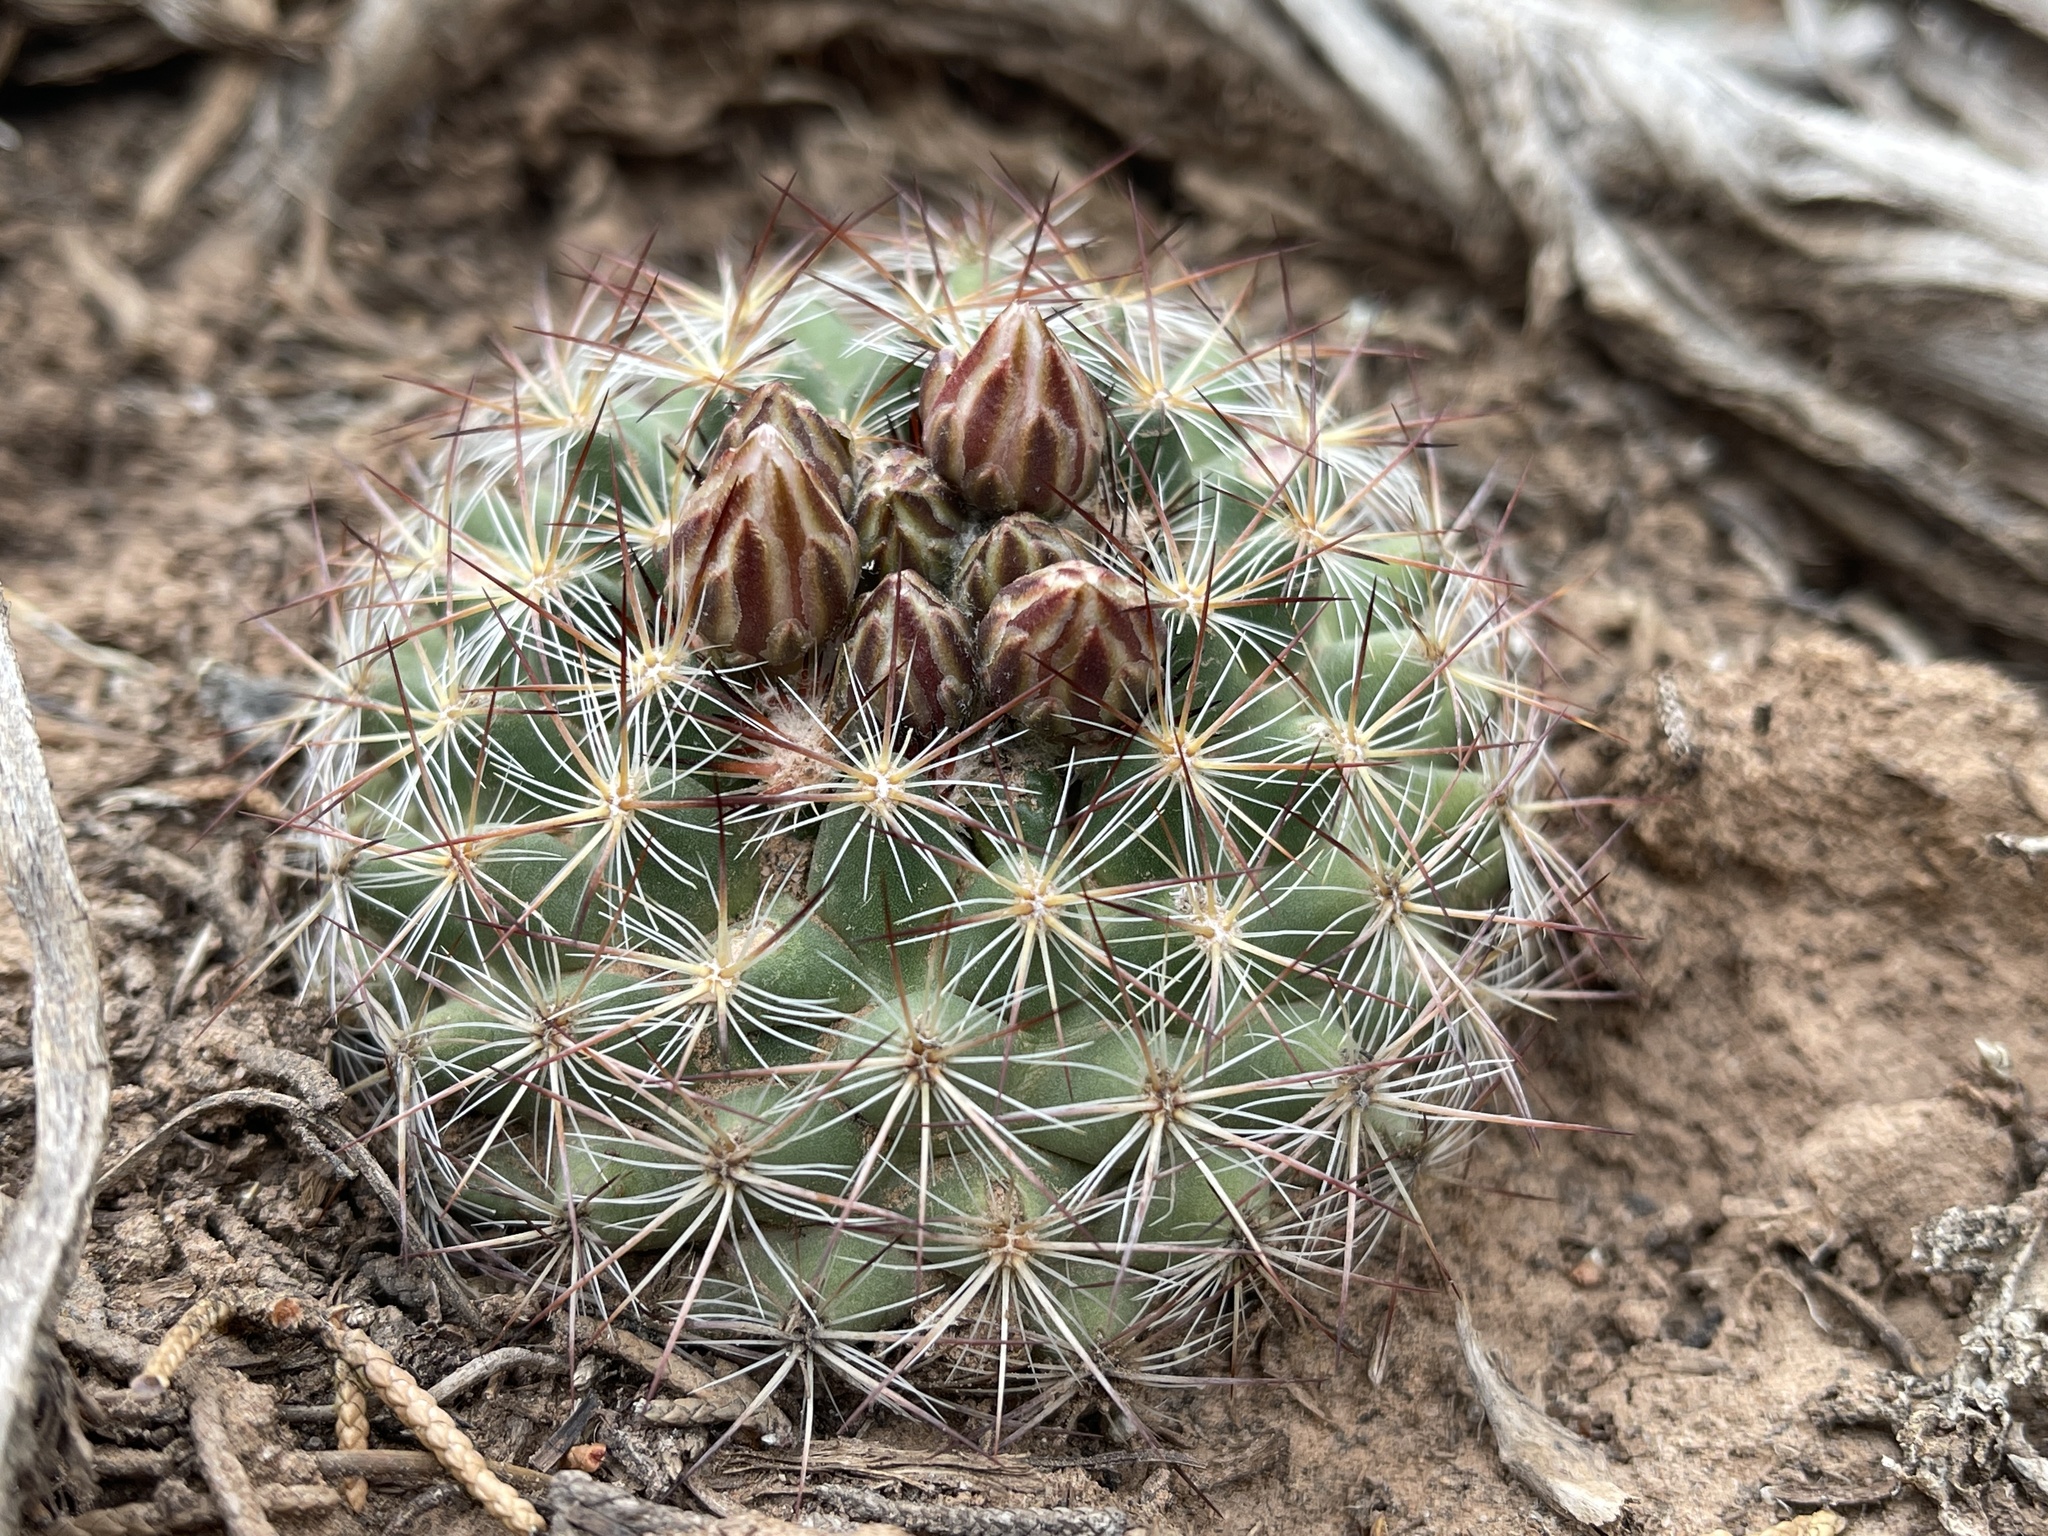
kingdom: Plantae
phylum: Tracheophyta
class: Magnoliopsida
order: Caryophyllales
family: Cactaceae
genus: Pediocactus
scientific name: Pediocactus simpsonii
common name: Simpson's hedgehog cactus
